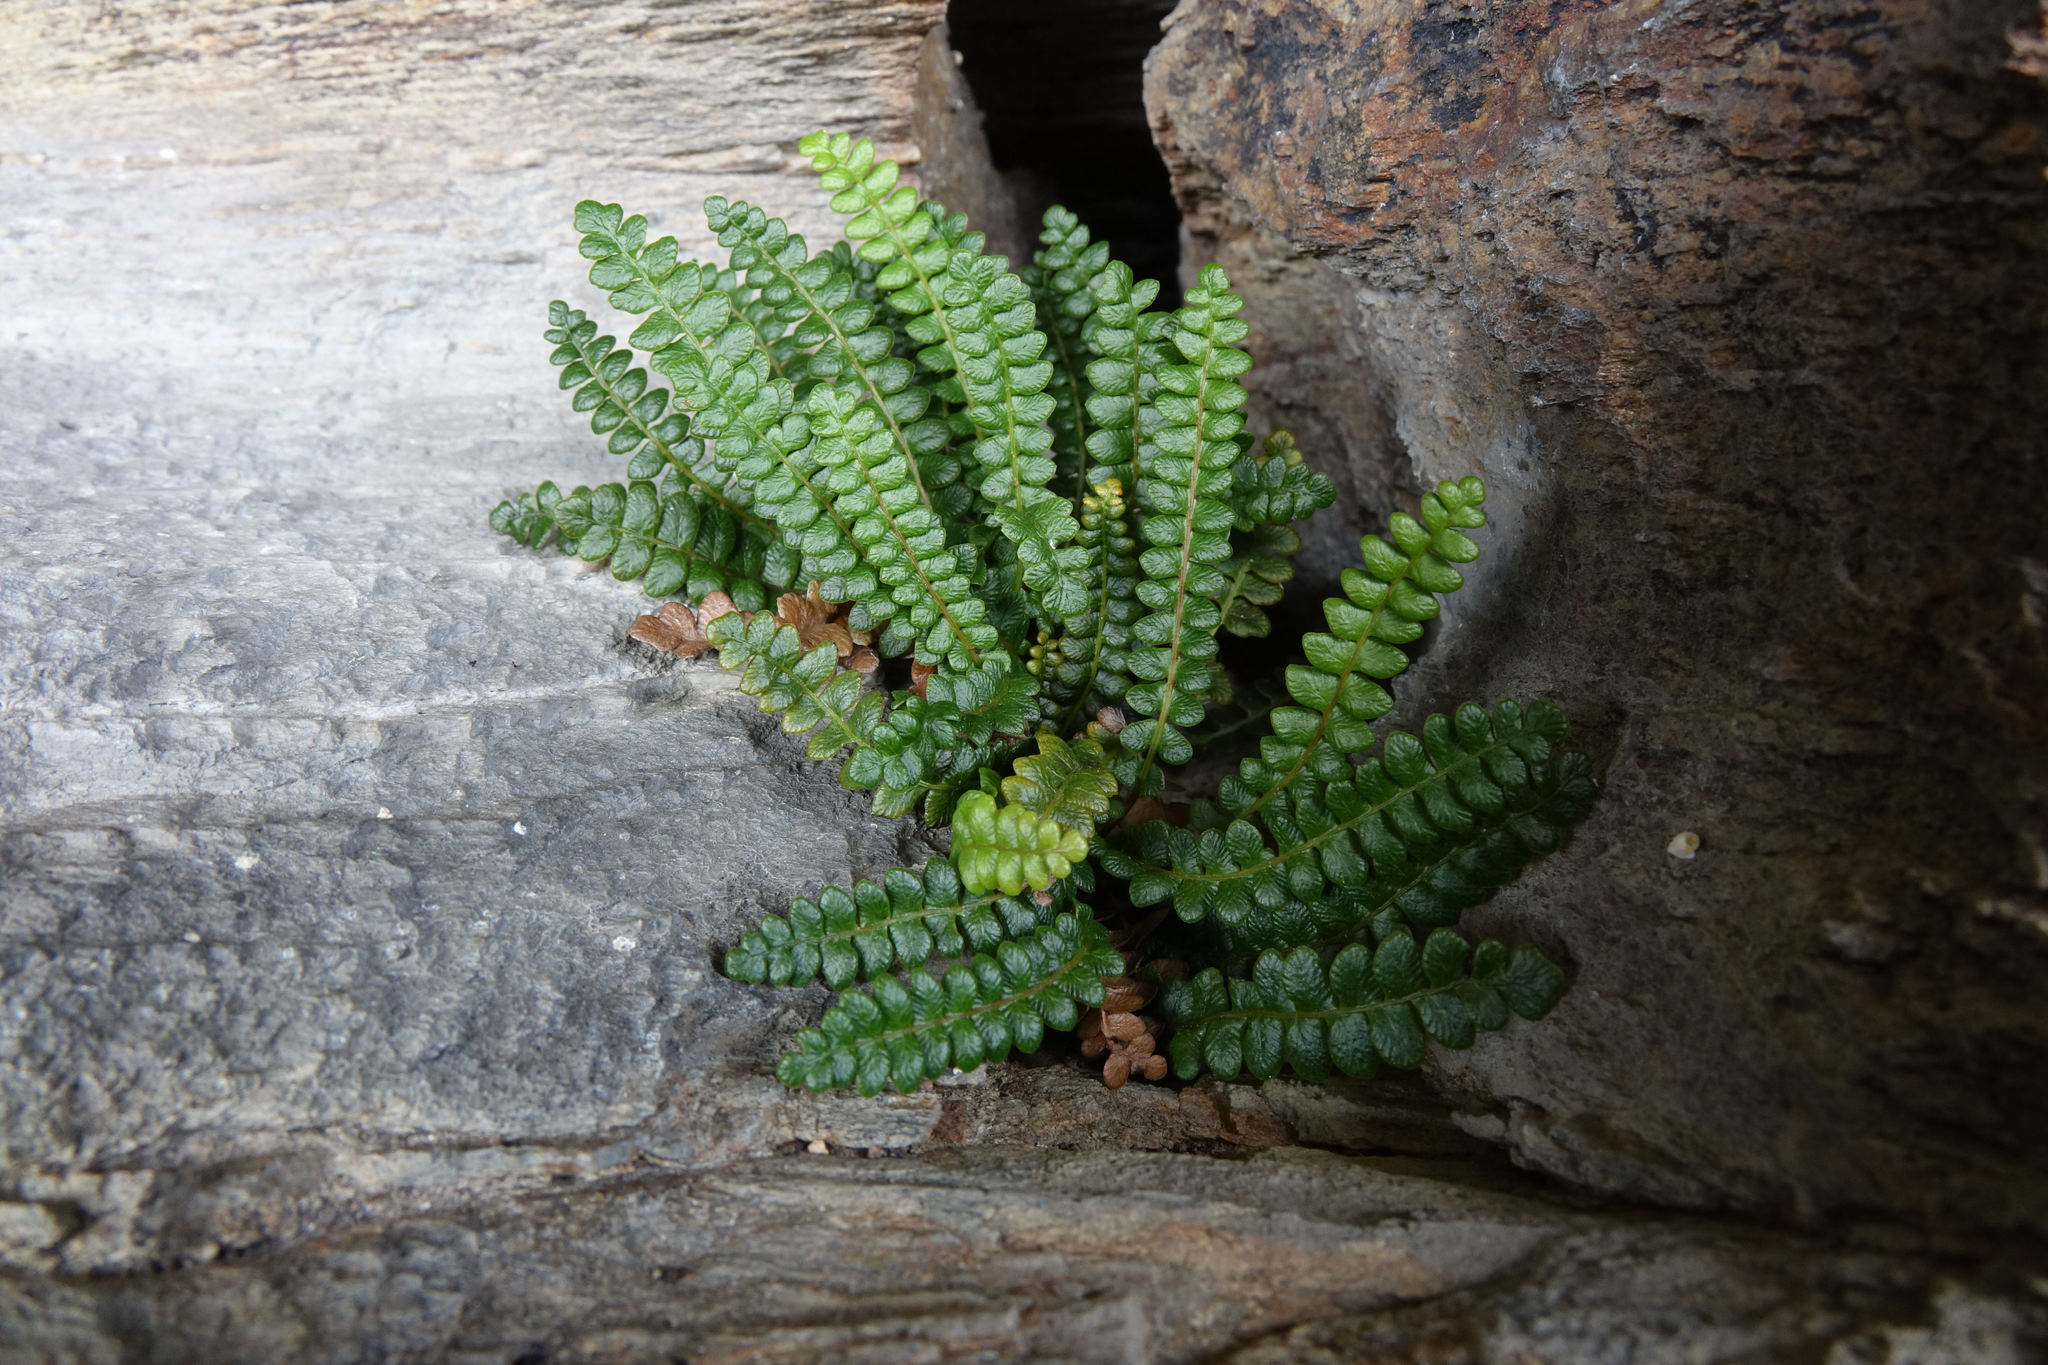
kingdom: Plantae
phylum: Tracheophyta
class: Polypodiopsida
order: Polypodiales
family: Blechnaceae
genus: Austroblechnum
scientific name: Austroblechnum penna-marina
